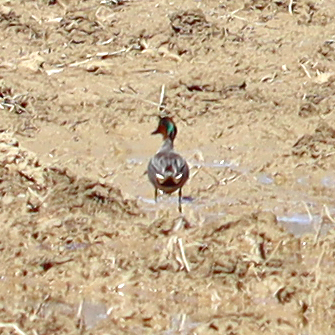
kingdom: Animalia
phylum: Chordata
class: Aves
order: Anseriformes
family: Anatidae
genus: Anas
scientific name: Anas crecca
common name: Eurasian teal
